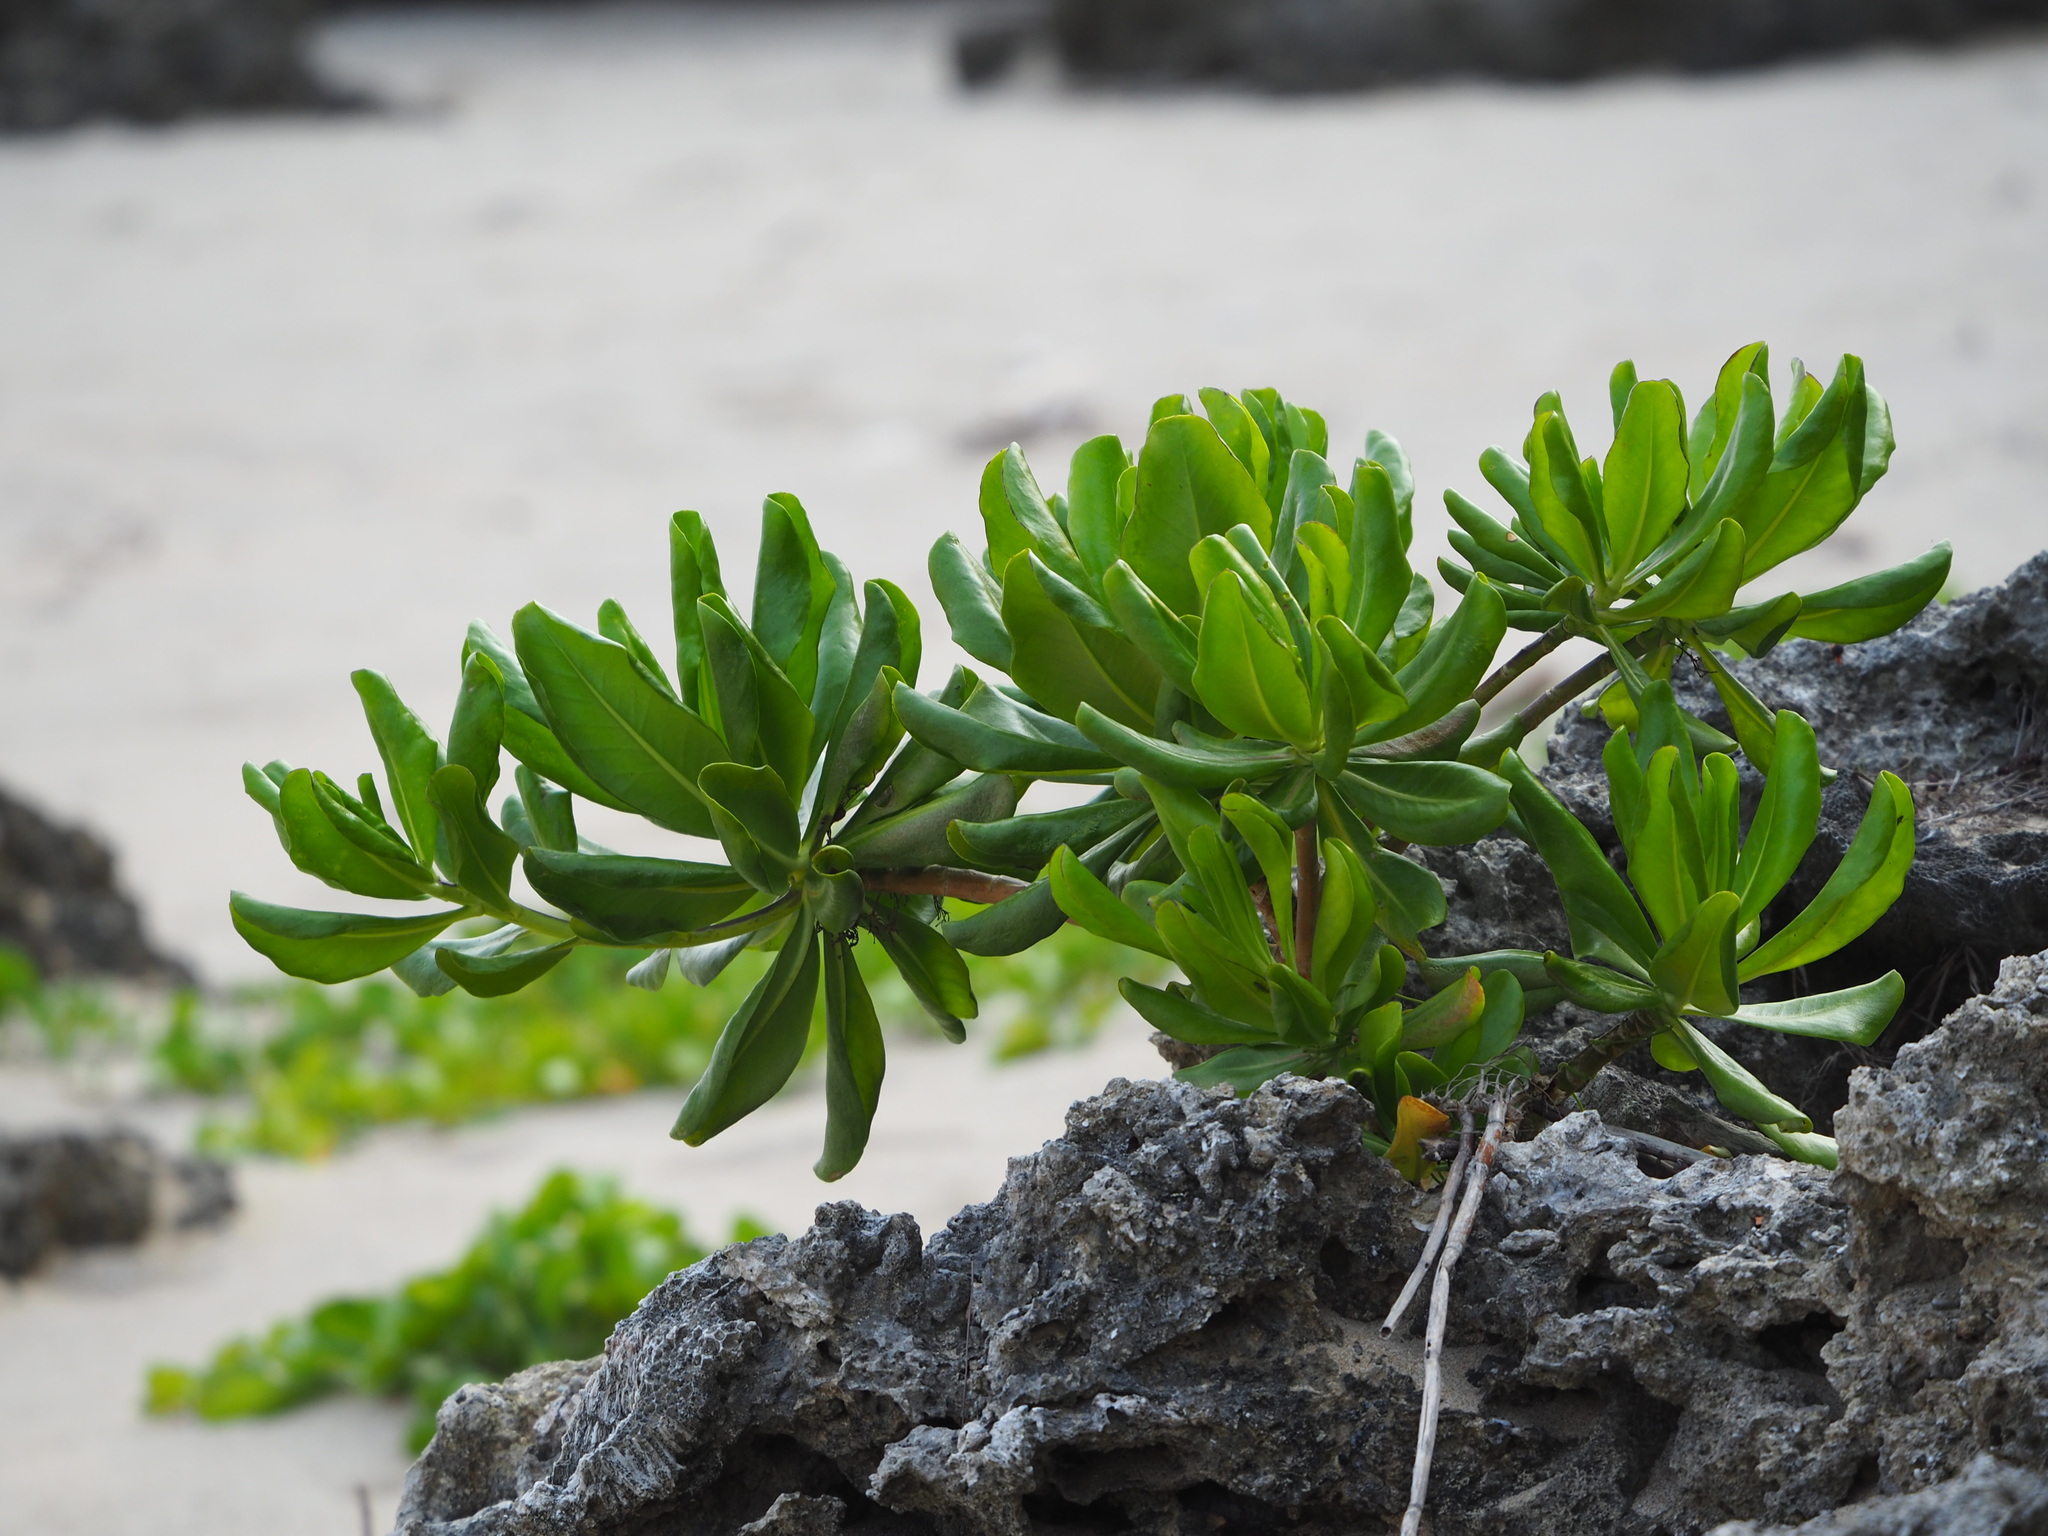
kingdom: Plantae
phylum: Tracheophyta
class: Magnoliopsida
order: Asterales
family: Goodeniaceae
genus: Scaevola
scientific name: Scaevola taccada
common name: Sea lettucetree
